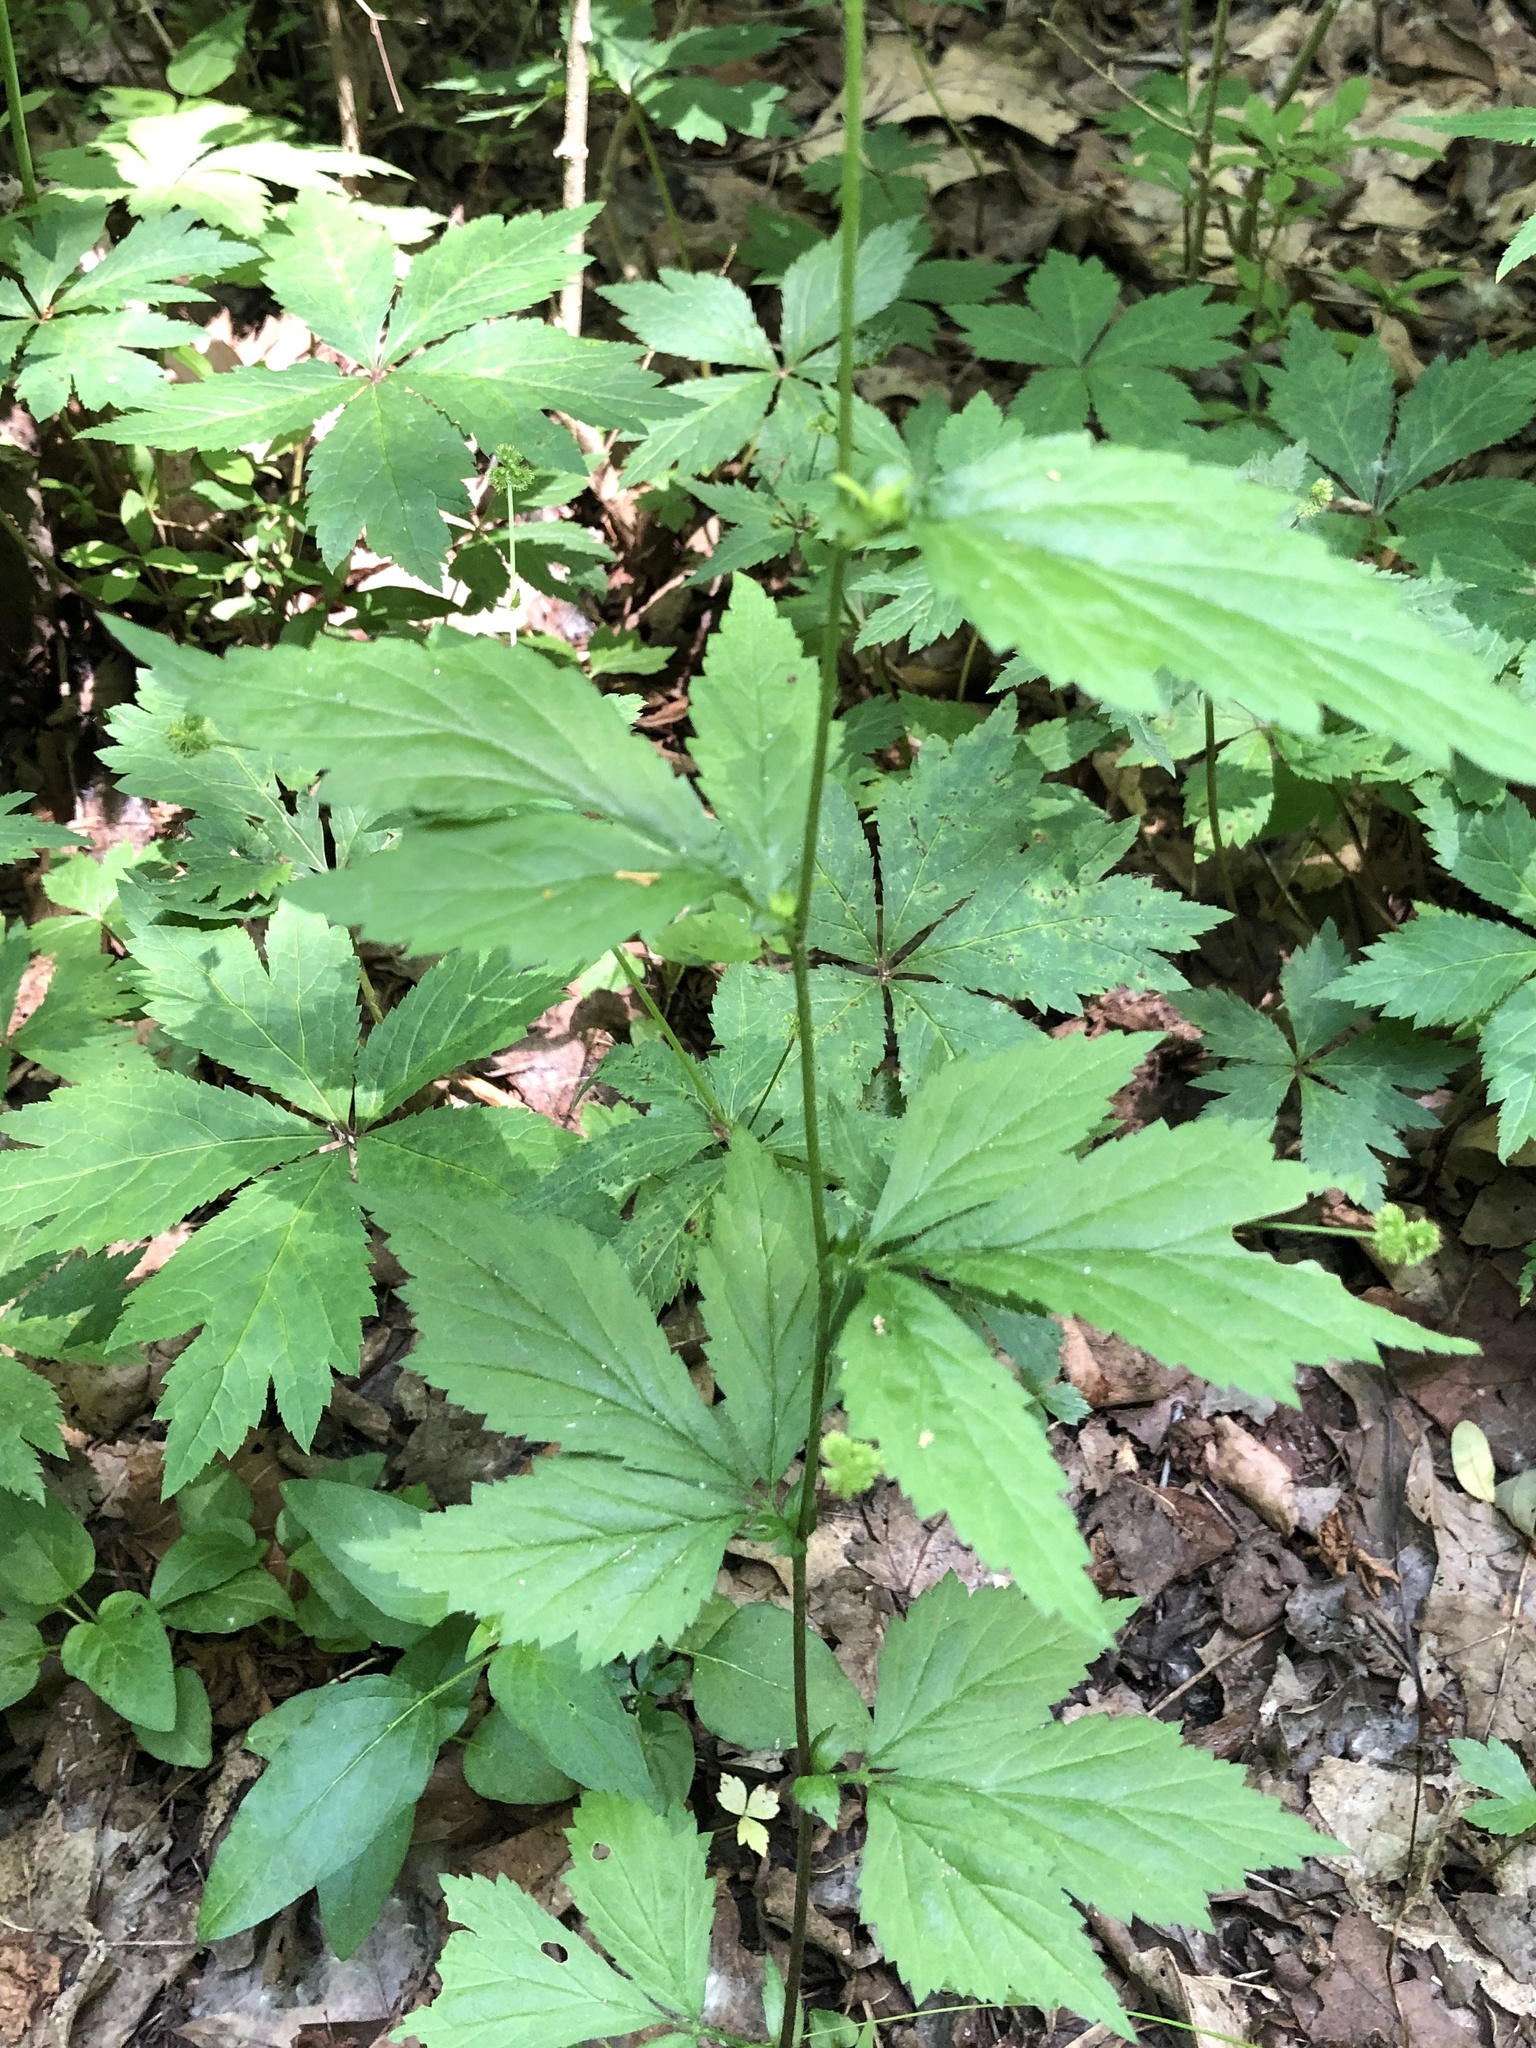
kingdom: Plantae
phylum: Tracheophyta
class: Magnoliopsida
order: Rosales
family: Rosaceae
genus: Geum
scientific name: Geum canadense
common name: White avens
